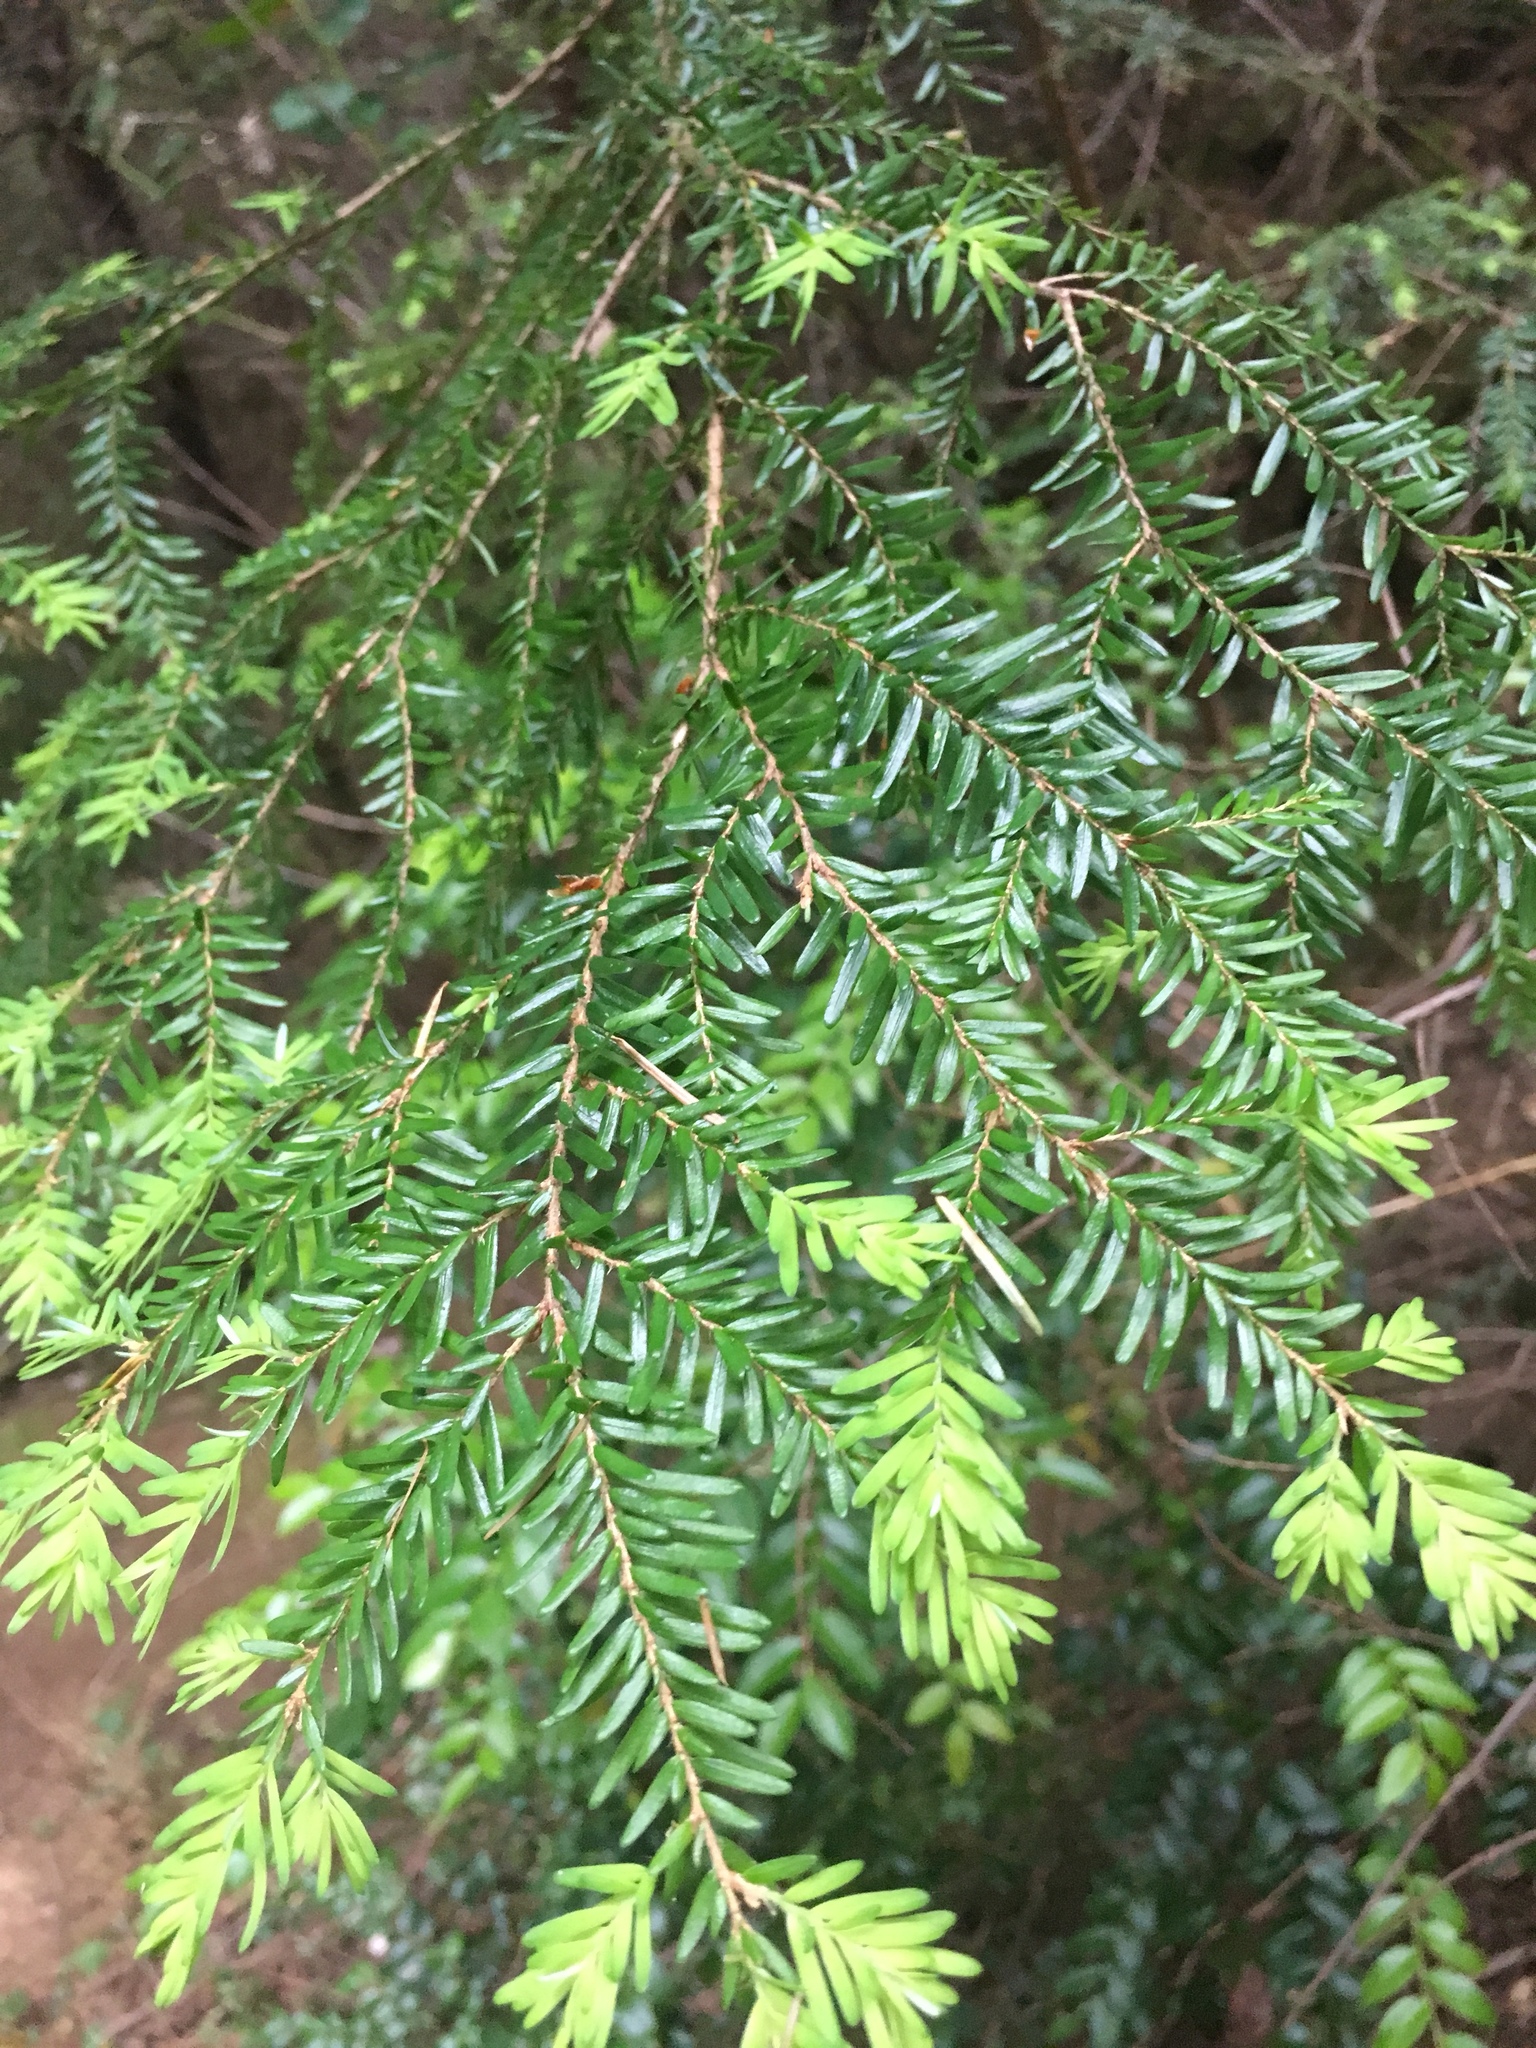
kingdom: Plantae
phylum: Tracheophyta
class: Pinopsida
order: Pinales
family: Pinaceae
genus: Tsuga
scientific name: Tsuga heterophylla
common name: Western hemlock
